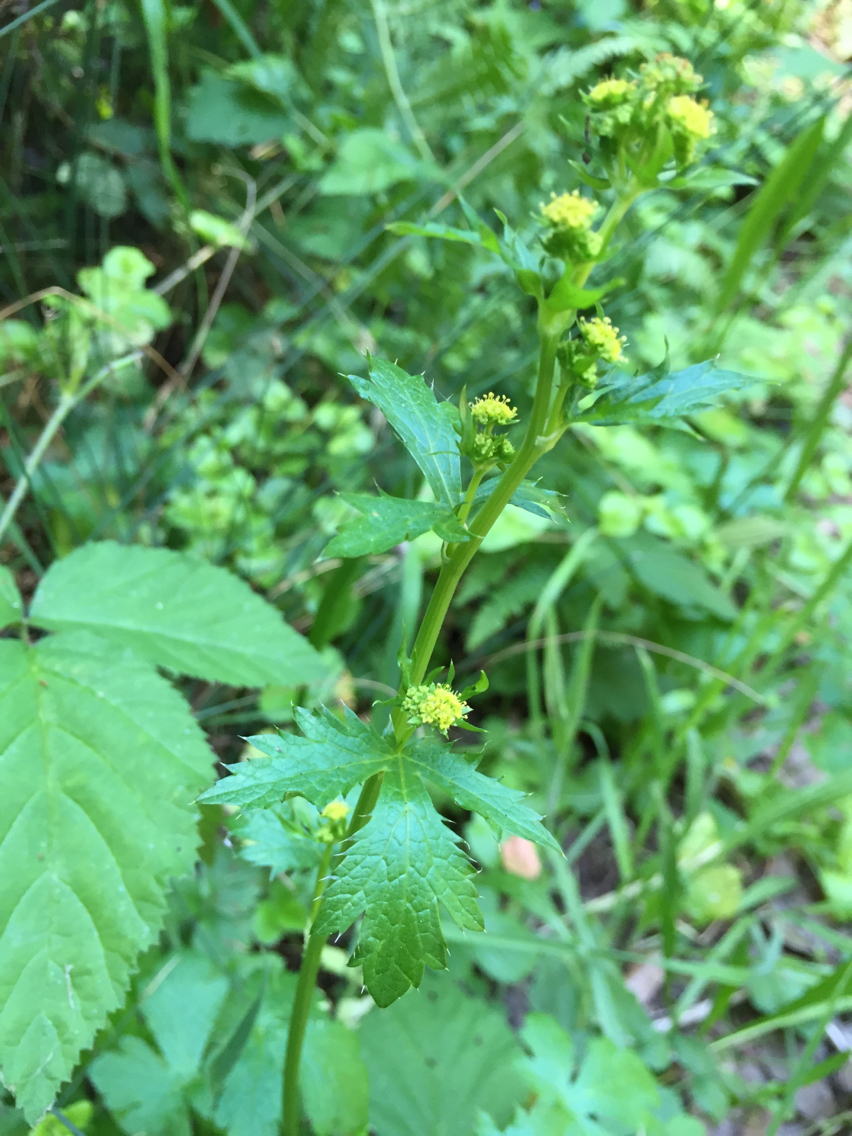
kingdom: Plantae
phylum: Tracheophyta
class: Magnoliopsida
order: Apiales
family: Apiaceae
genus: Sanicula
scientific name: Sanicula crassicaulis
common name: Western snakeroot
